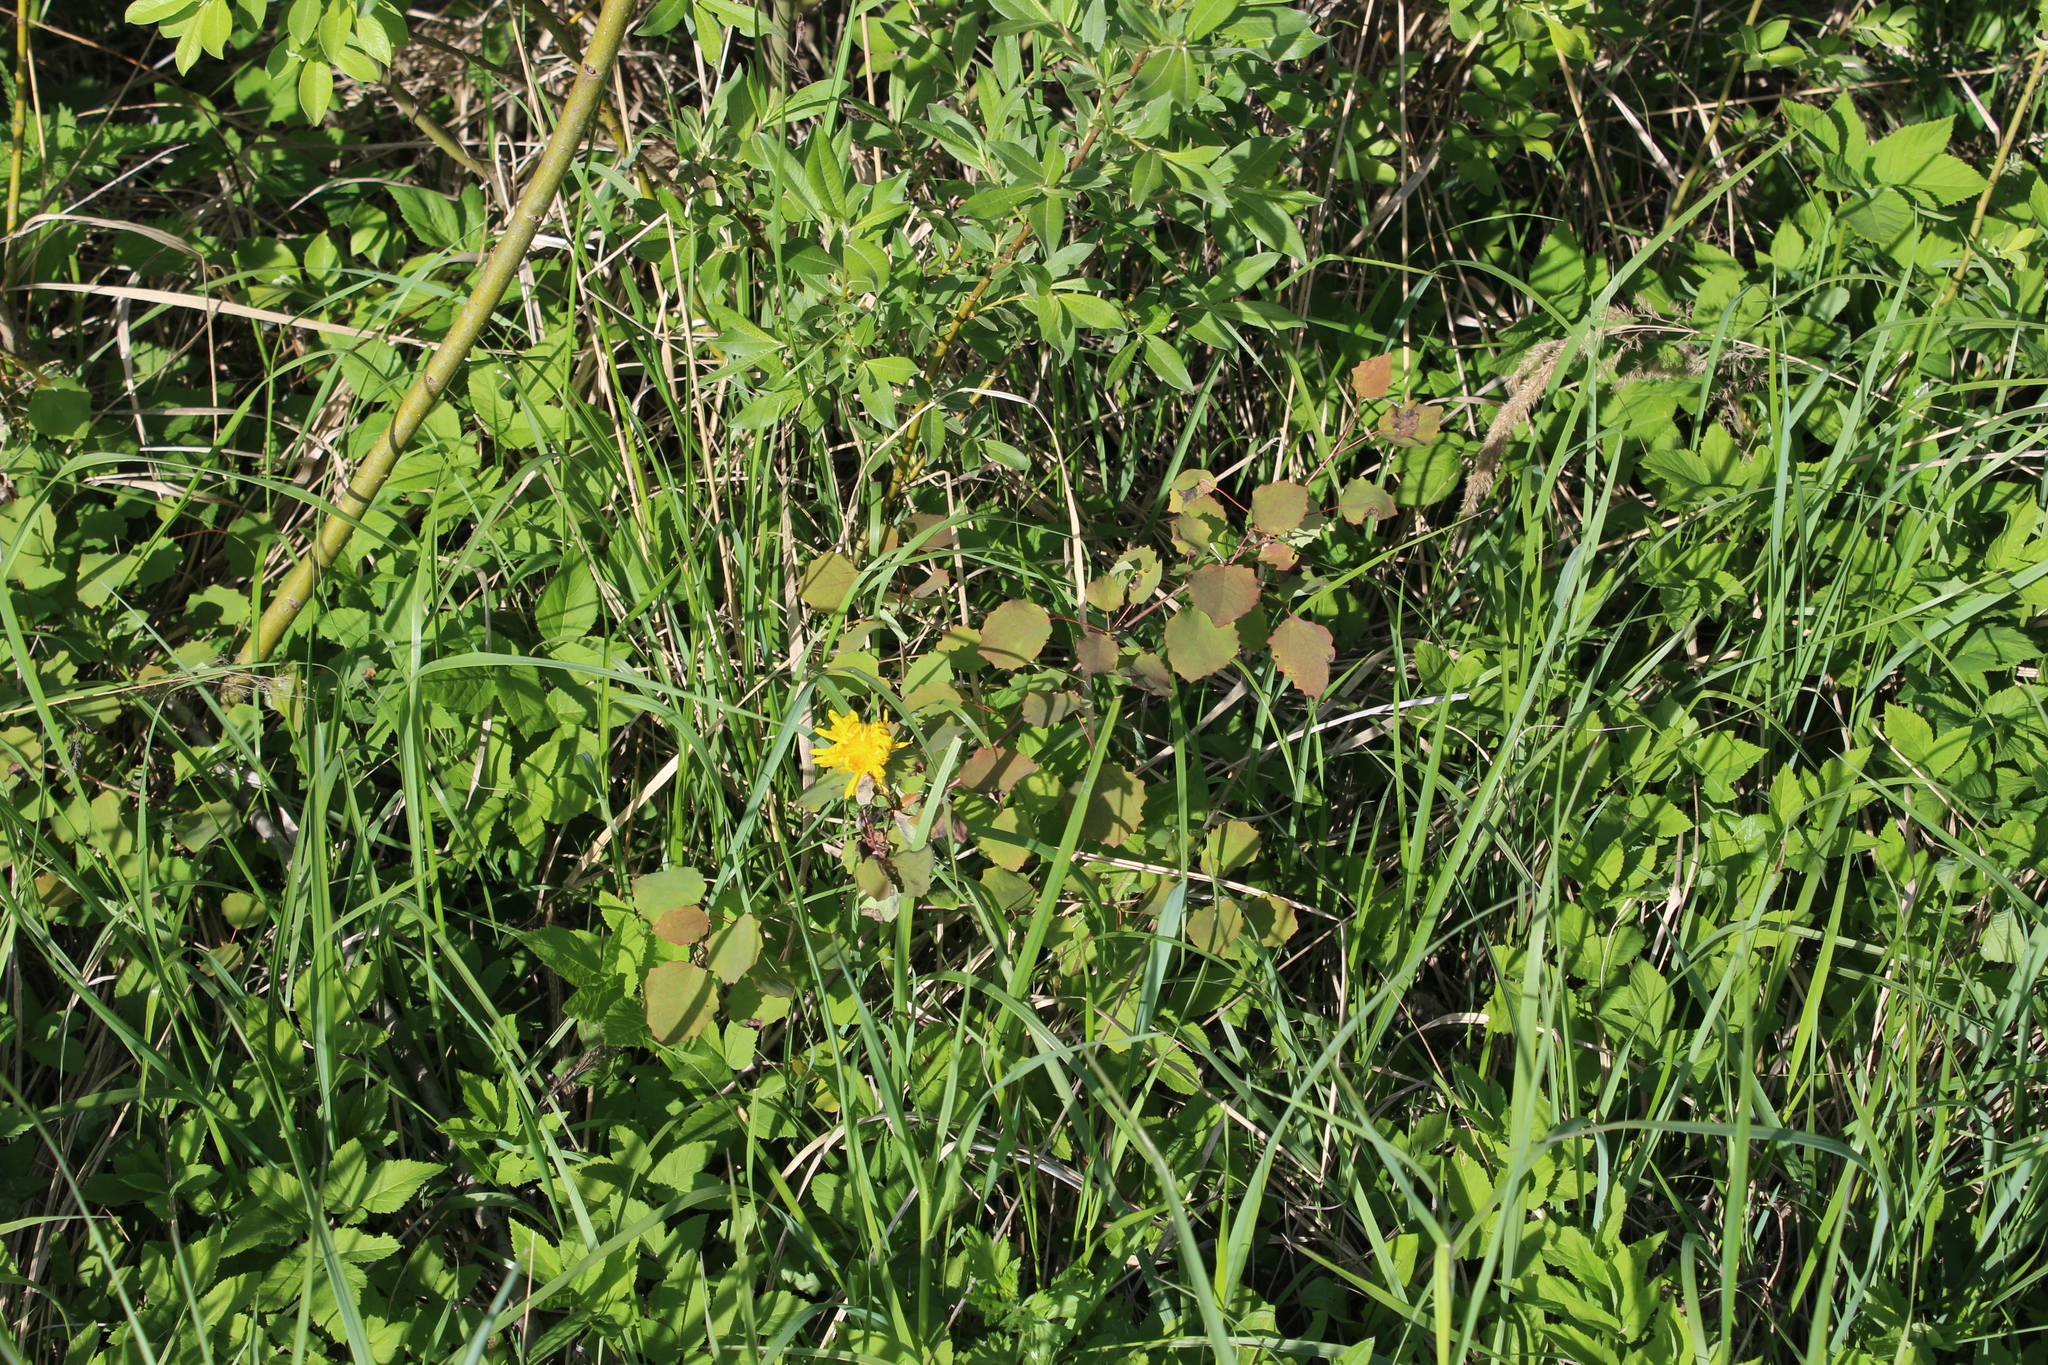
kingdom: Plantae
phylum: Tracheophyta
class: Magnoliopsida
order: Malpighiales
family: Salicaceae
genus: Populus
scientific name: Populus tremula
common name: European aspen
